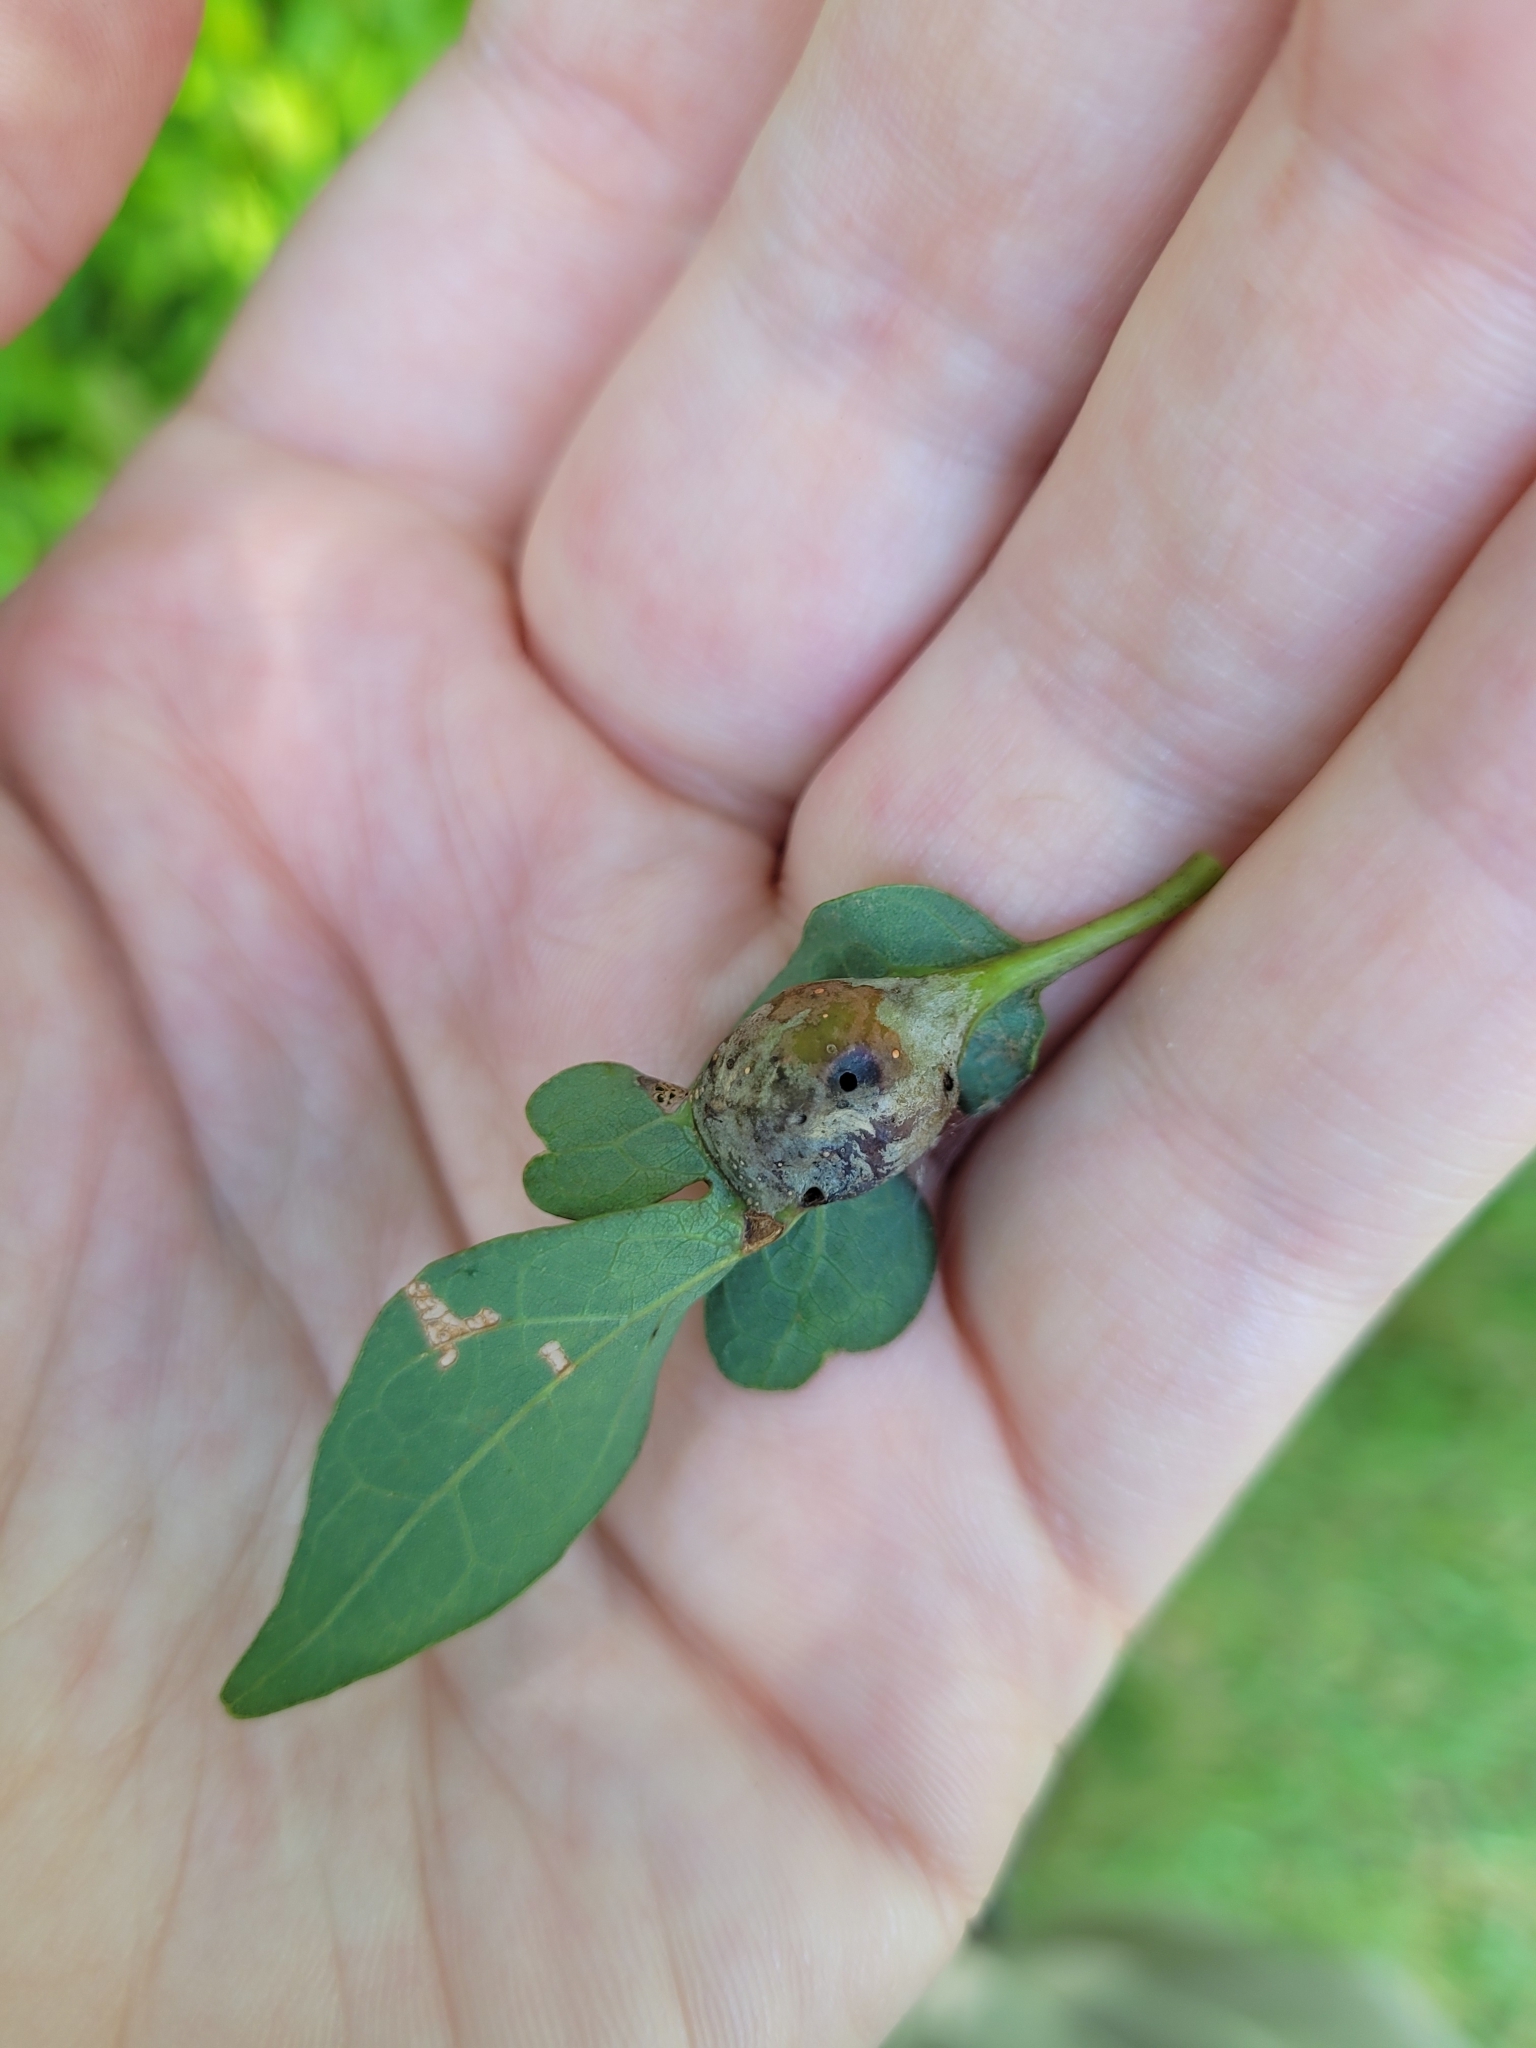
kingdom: Animalia
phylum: Arthropoda
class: Insecta
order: Hymenoptera
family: Cynipidae
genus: Andricus
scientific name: Andricus
